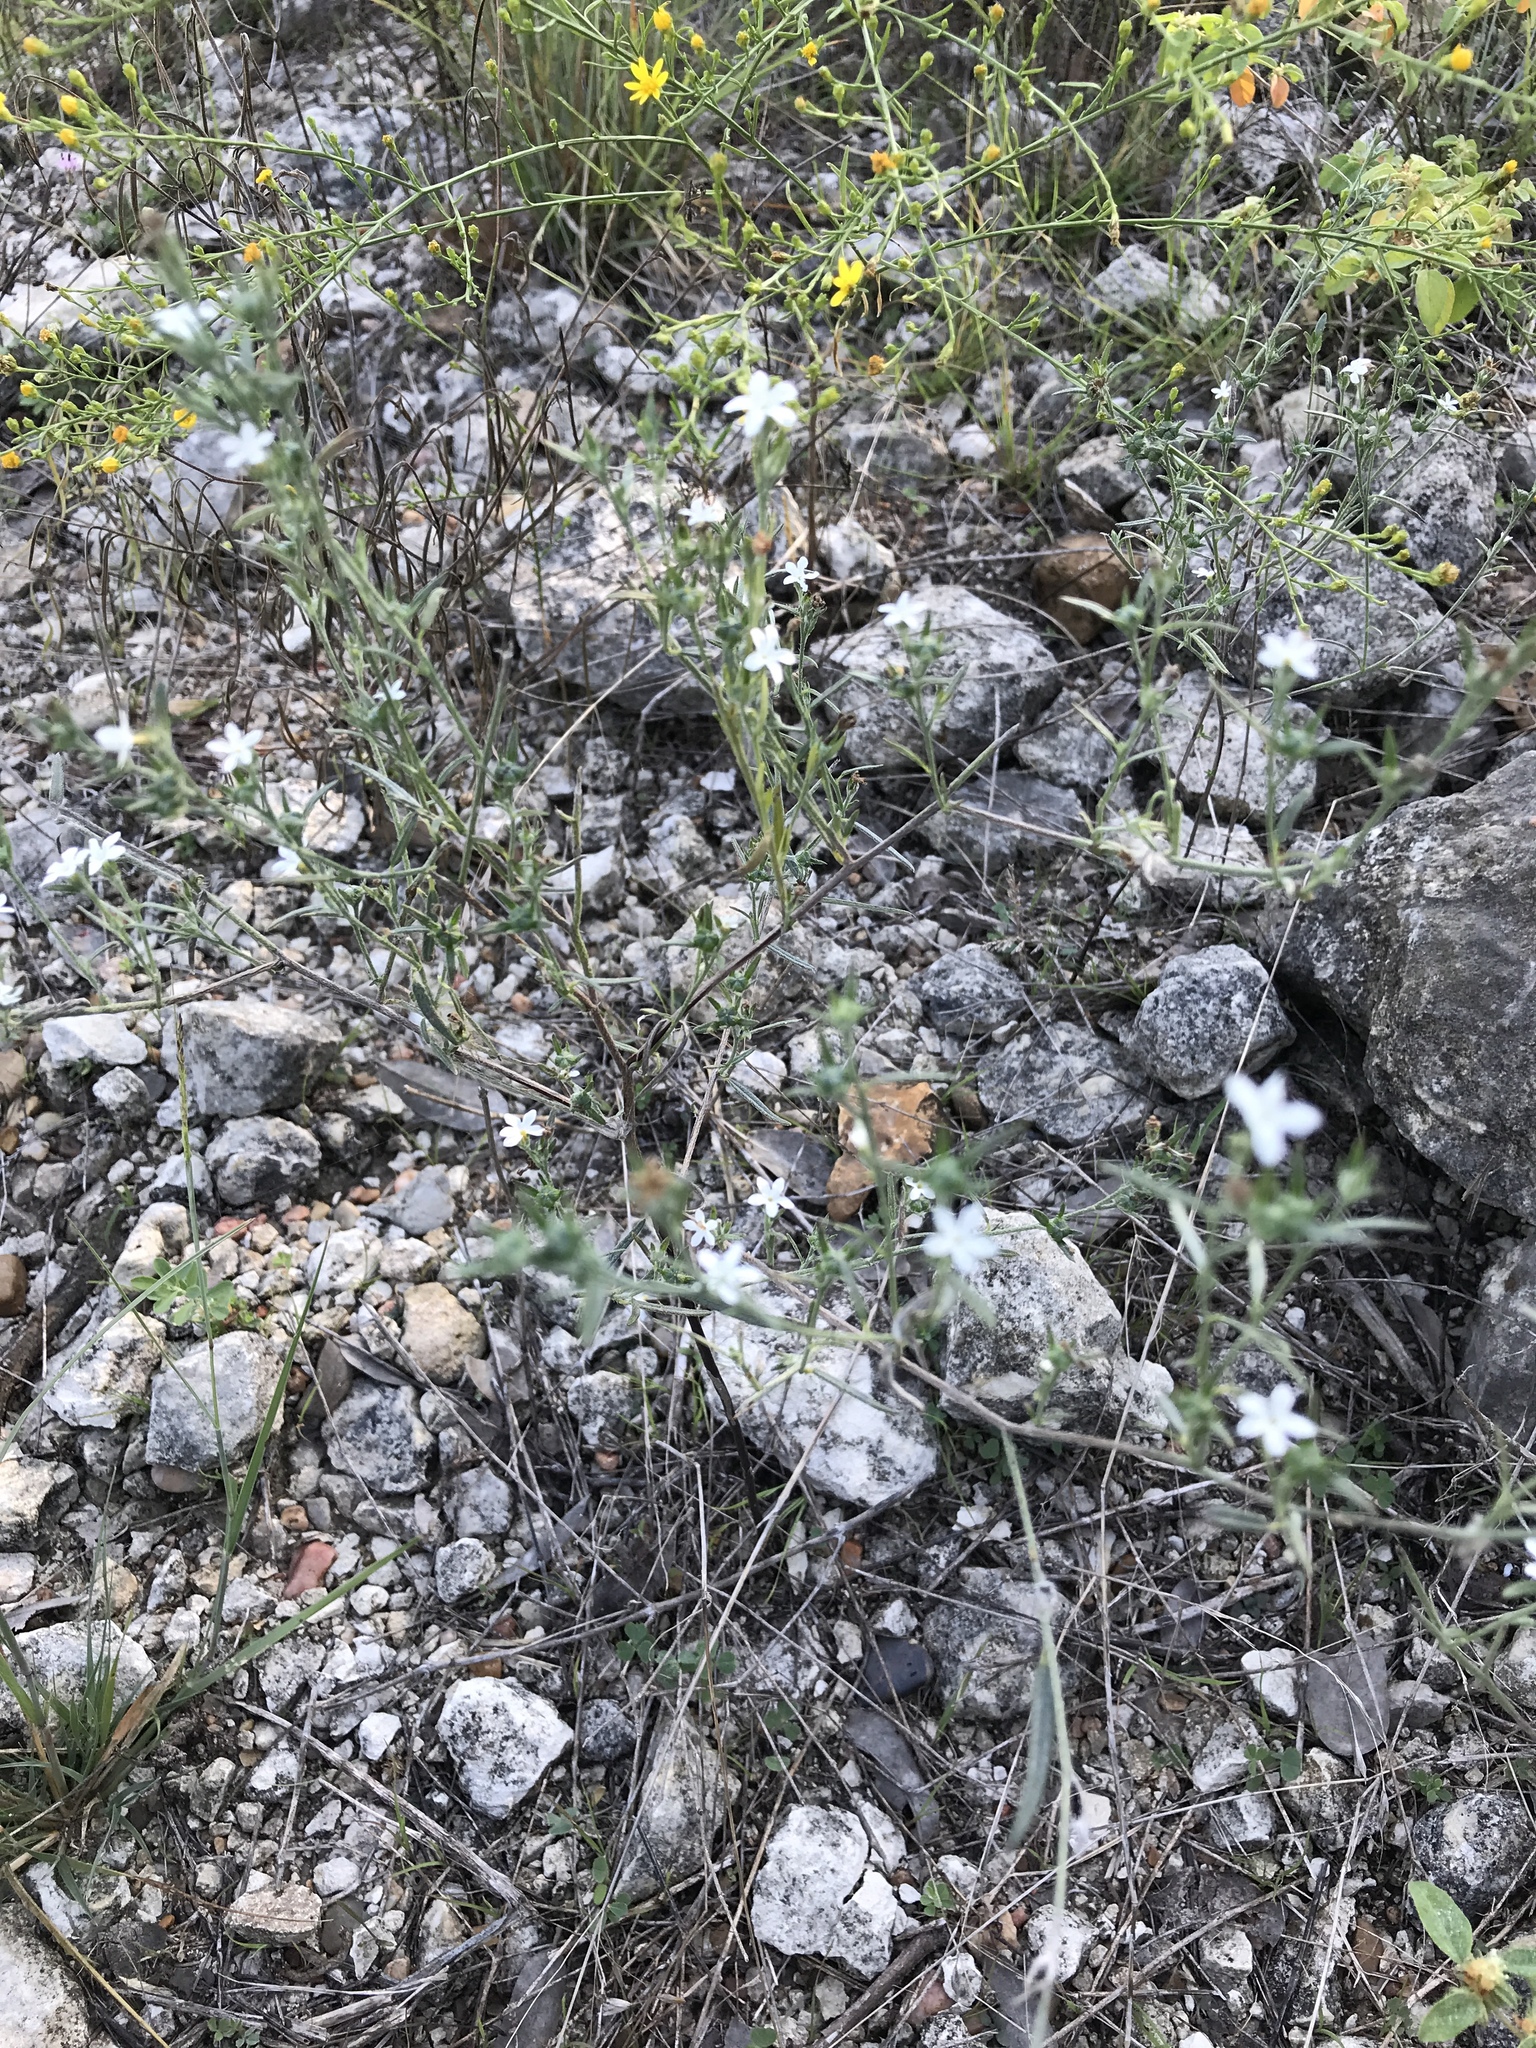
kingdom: Plantae
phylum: Tracheophyta
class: Magnoliopsida
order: Boraginales
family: Heliotropiaceae
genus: Euploca
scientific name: Euploca tenella
